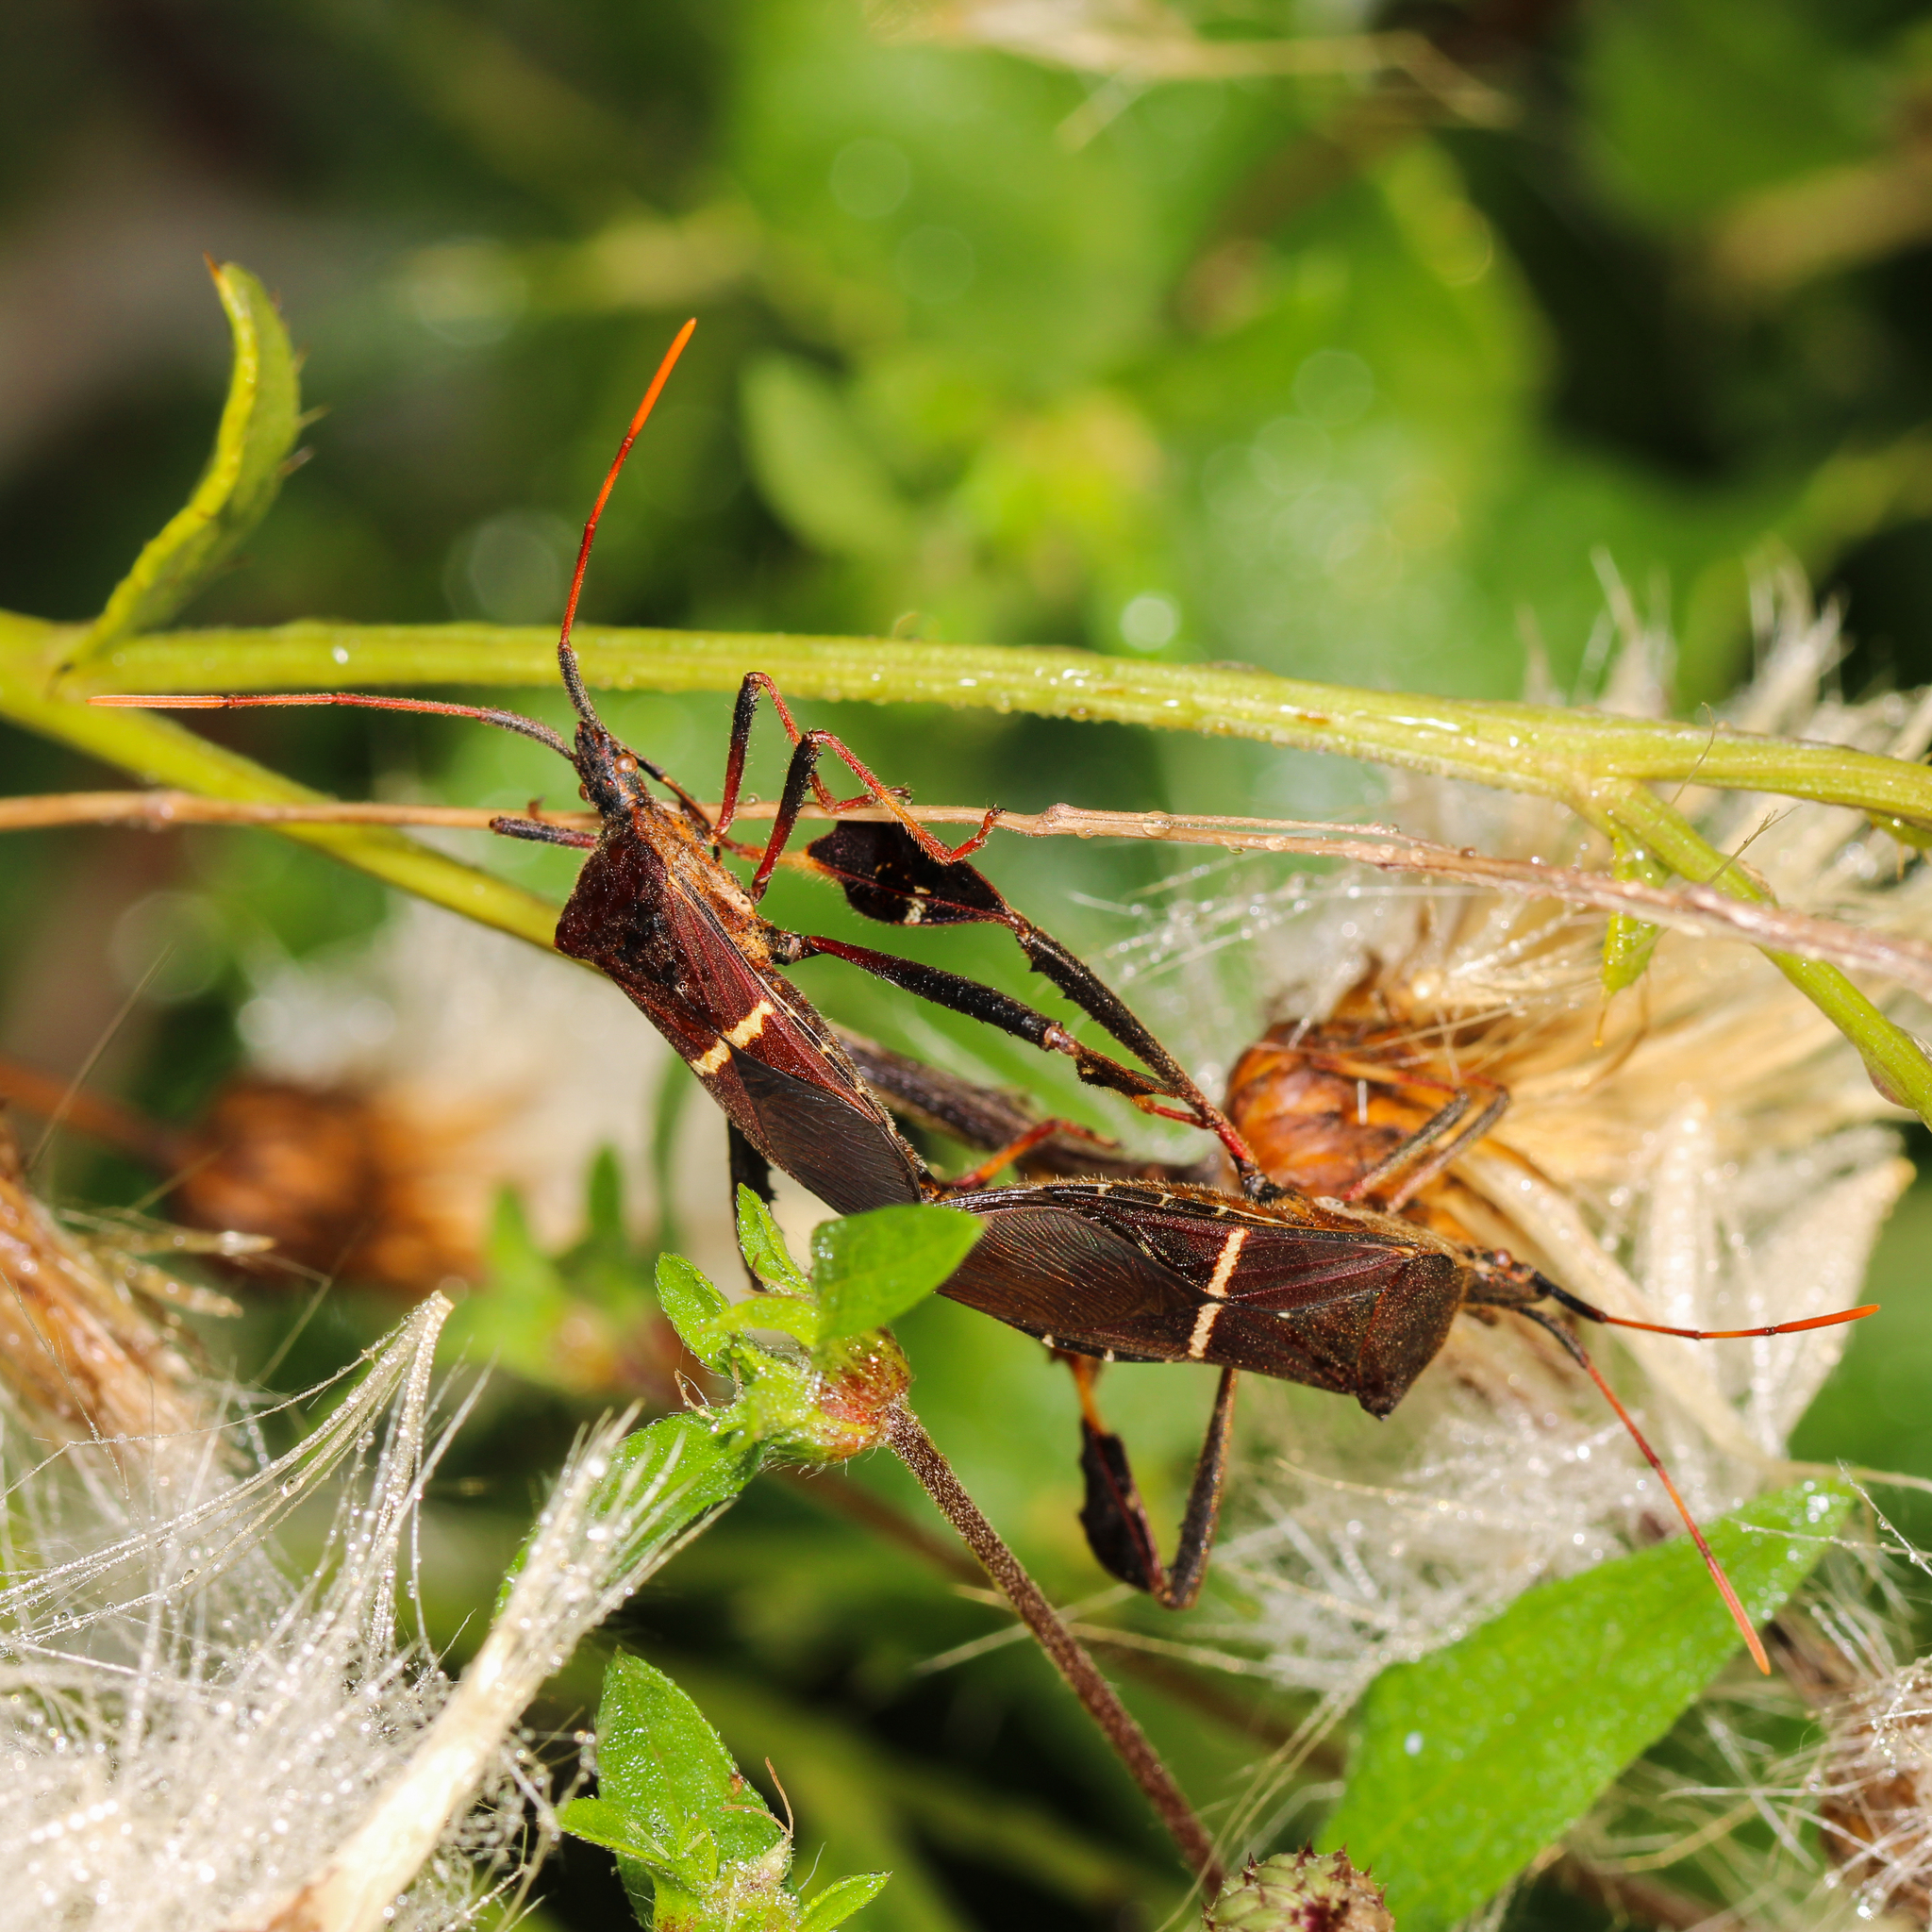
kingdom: Animalia
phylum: Arthropoda
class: Insecta
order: Hemiptera
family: Coreidae
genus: Leptoglossus
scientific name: Leptoglossus phyllopus
